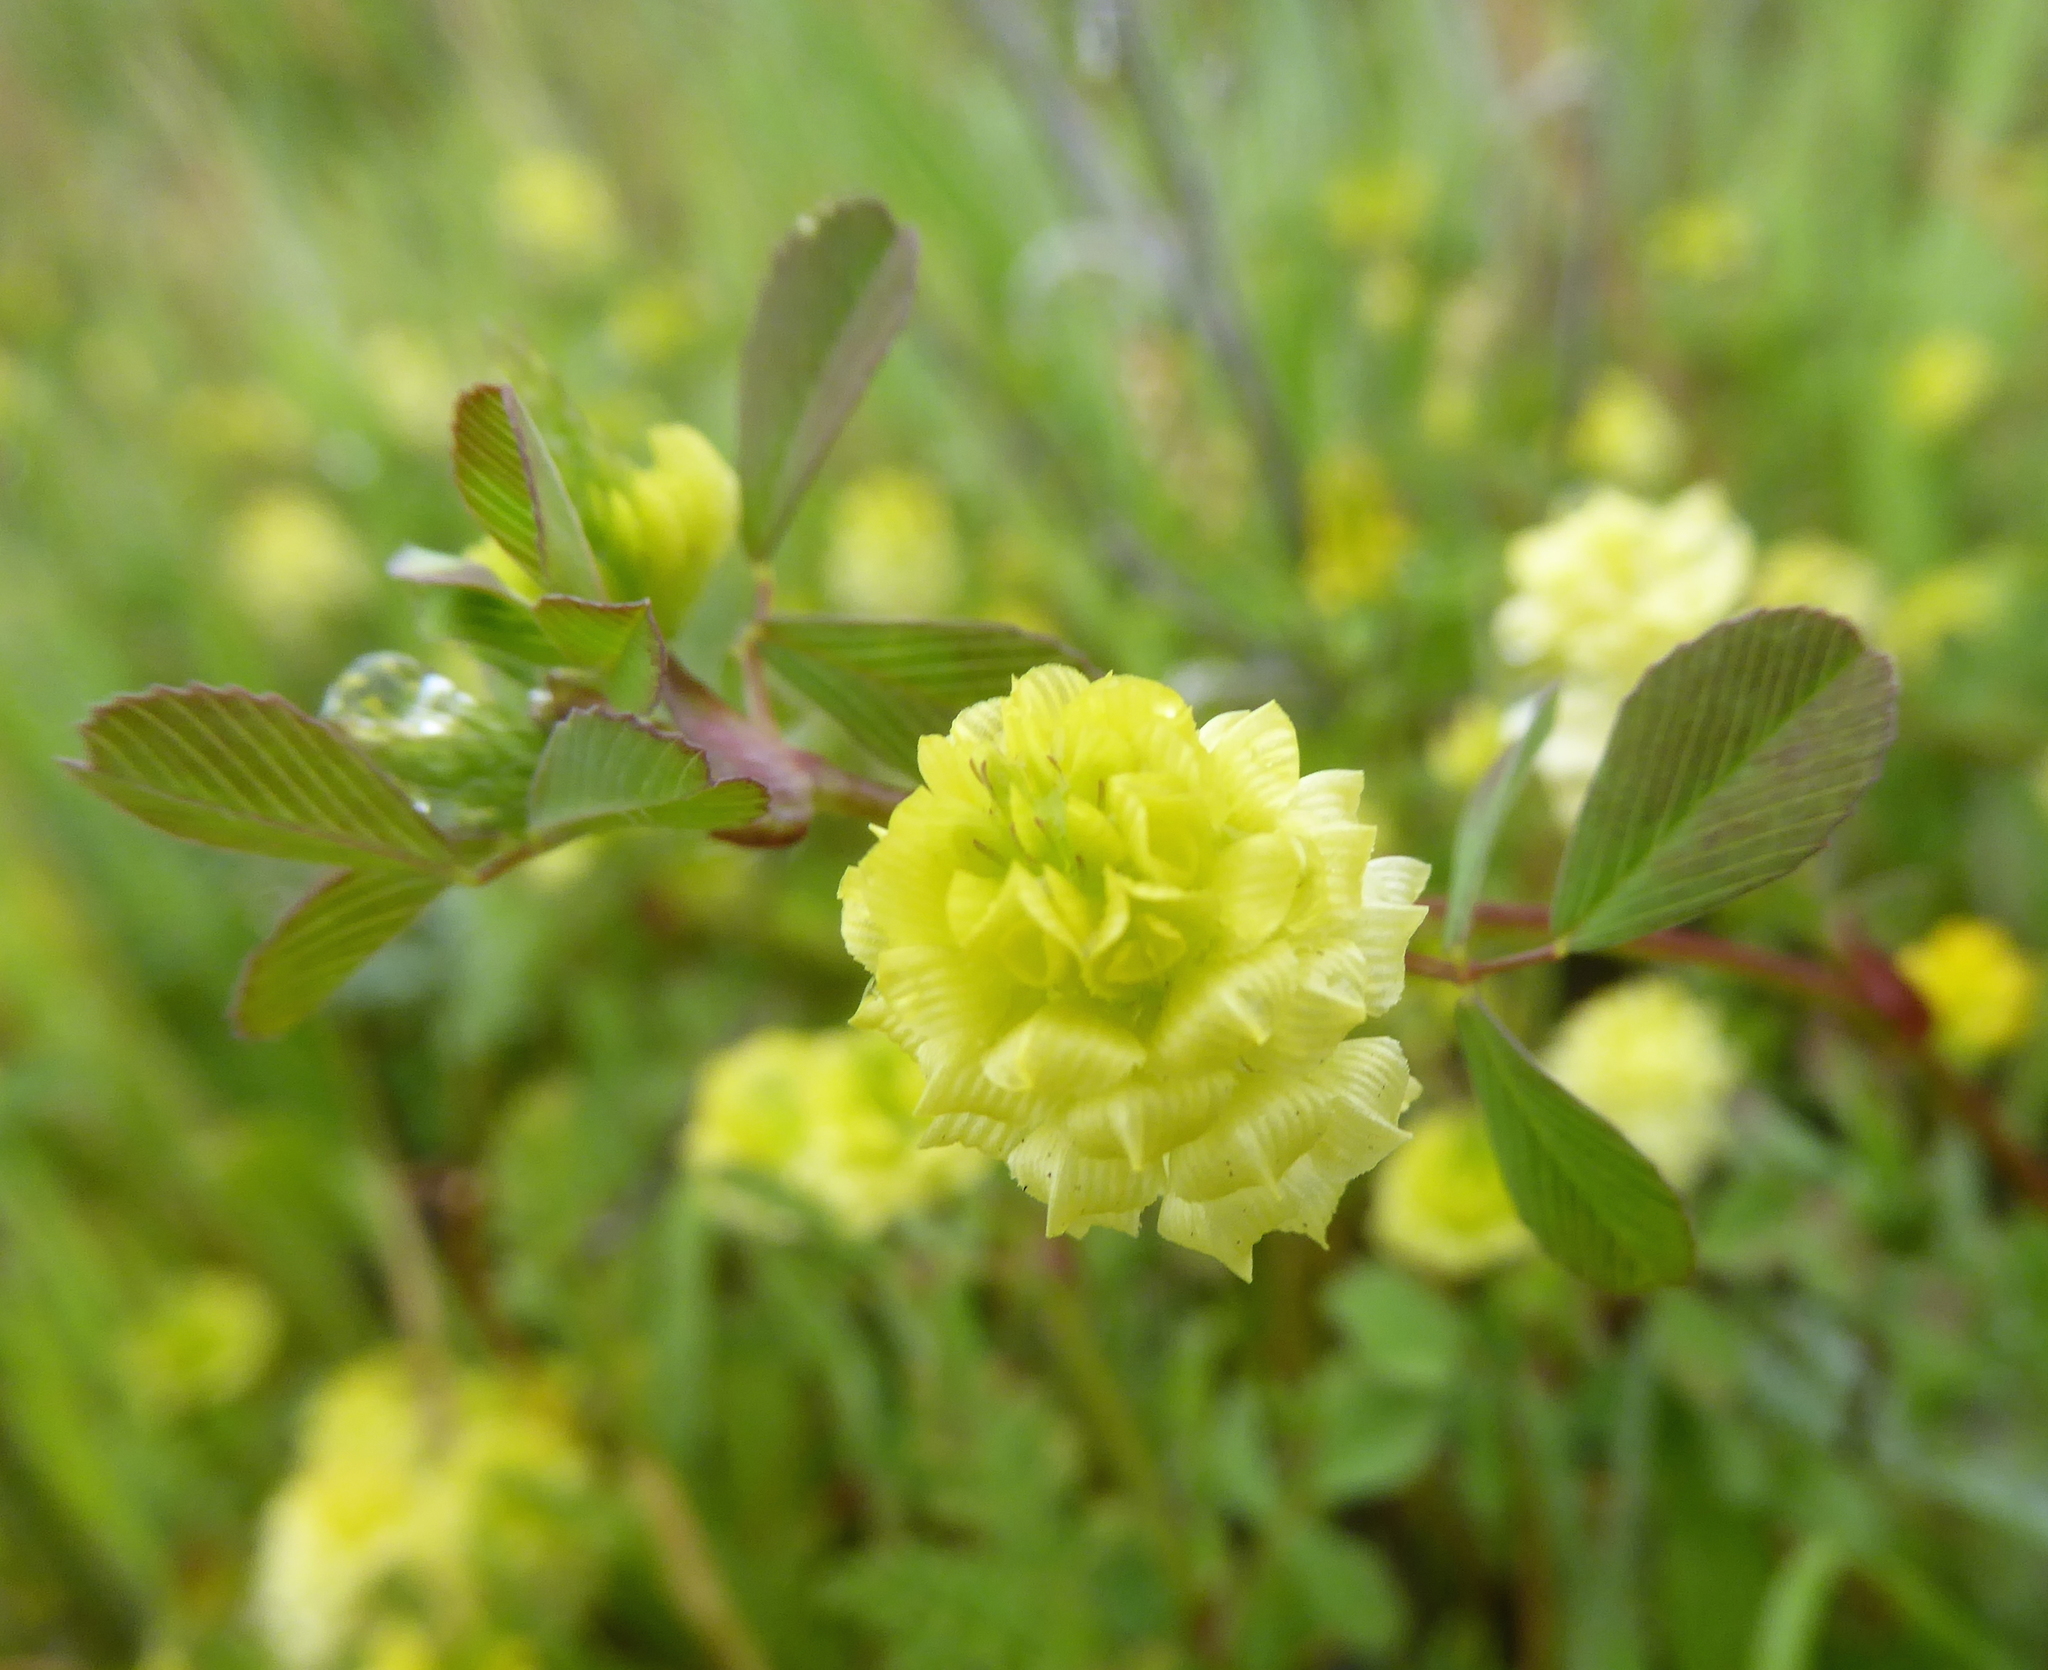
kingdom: Plantae
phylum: Tracheophyta
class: Magnoliopsida
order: Fabales
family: Fabaceae
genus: Trifolium
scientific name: Trifolium campestre
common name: Field clover
